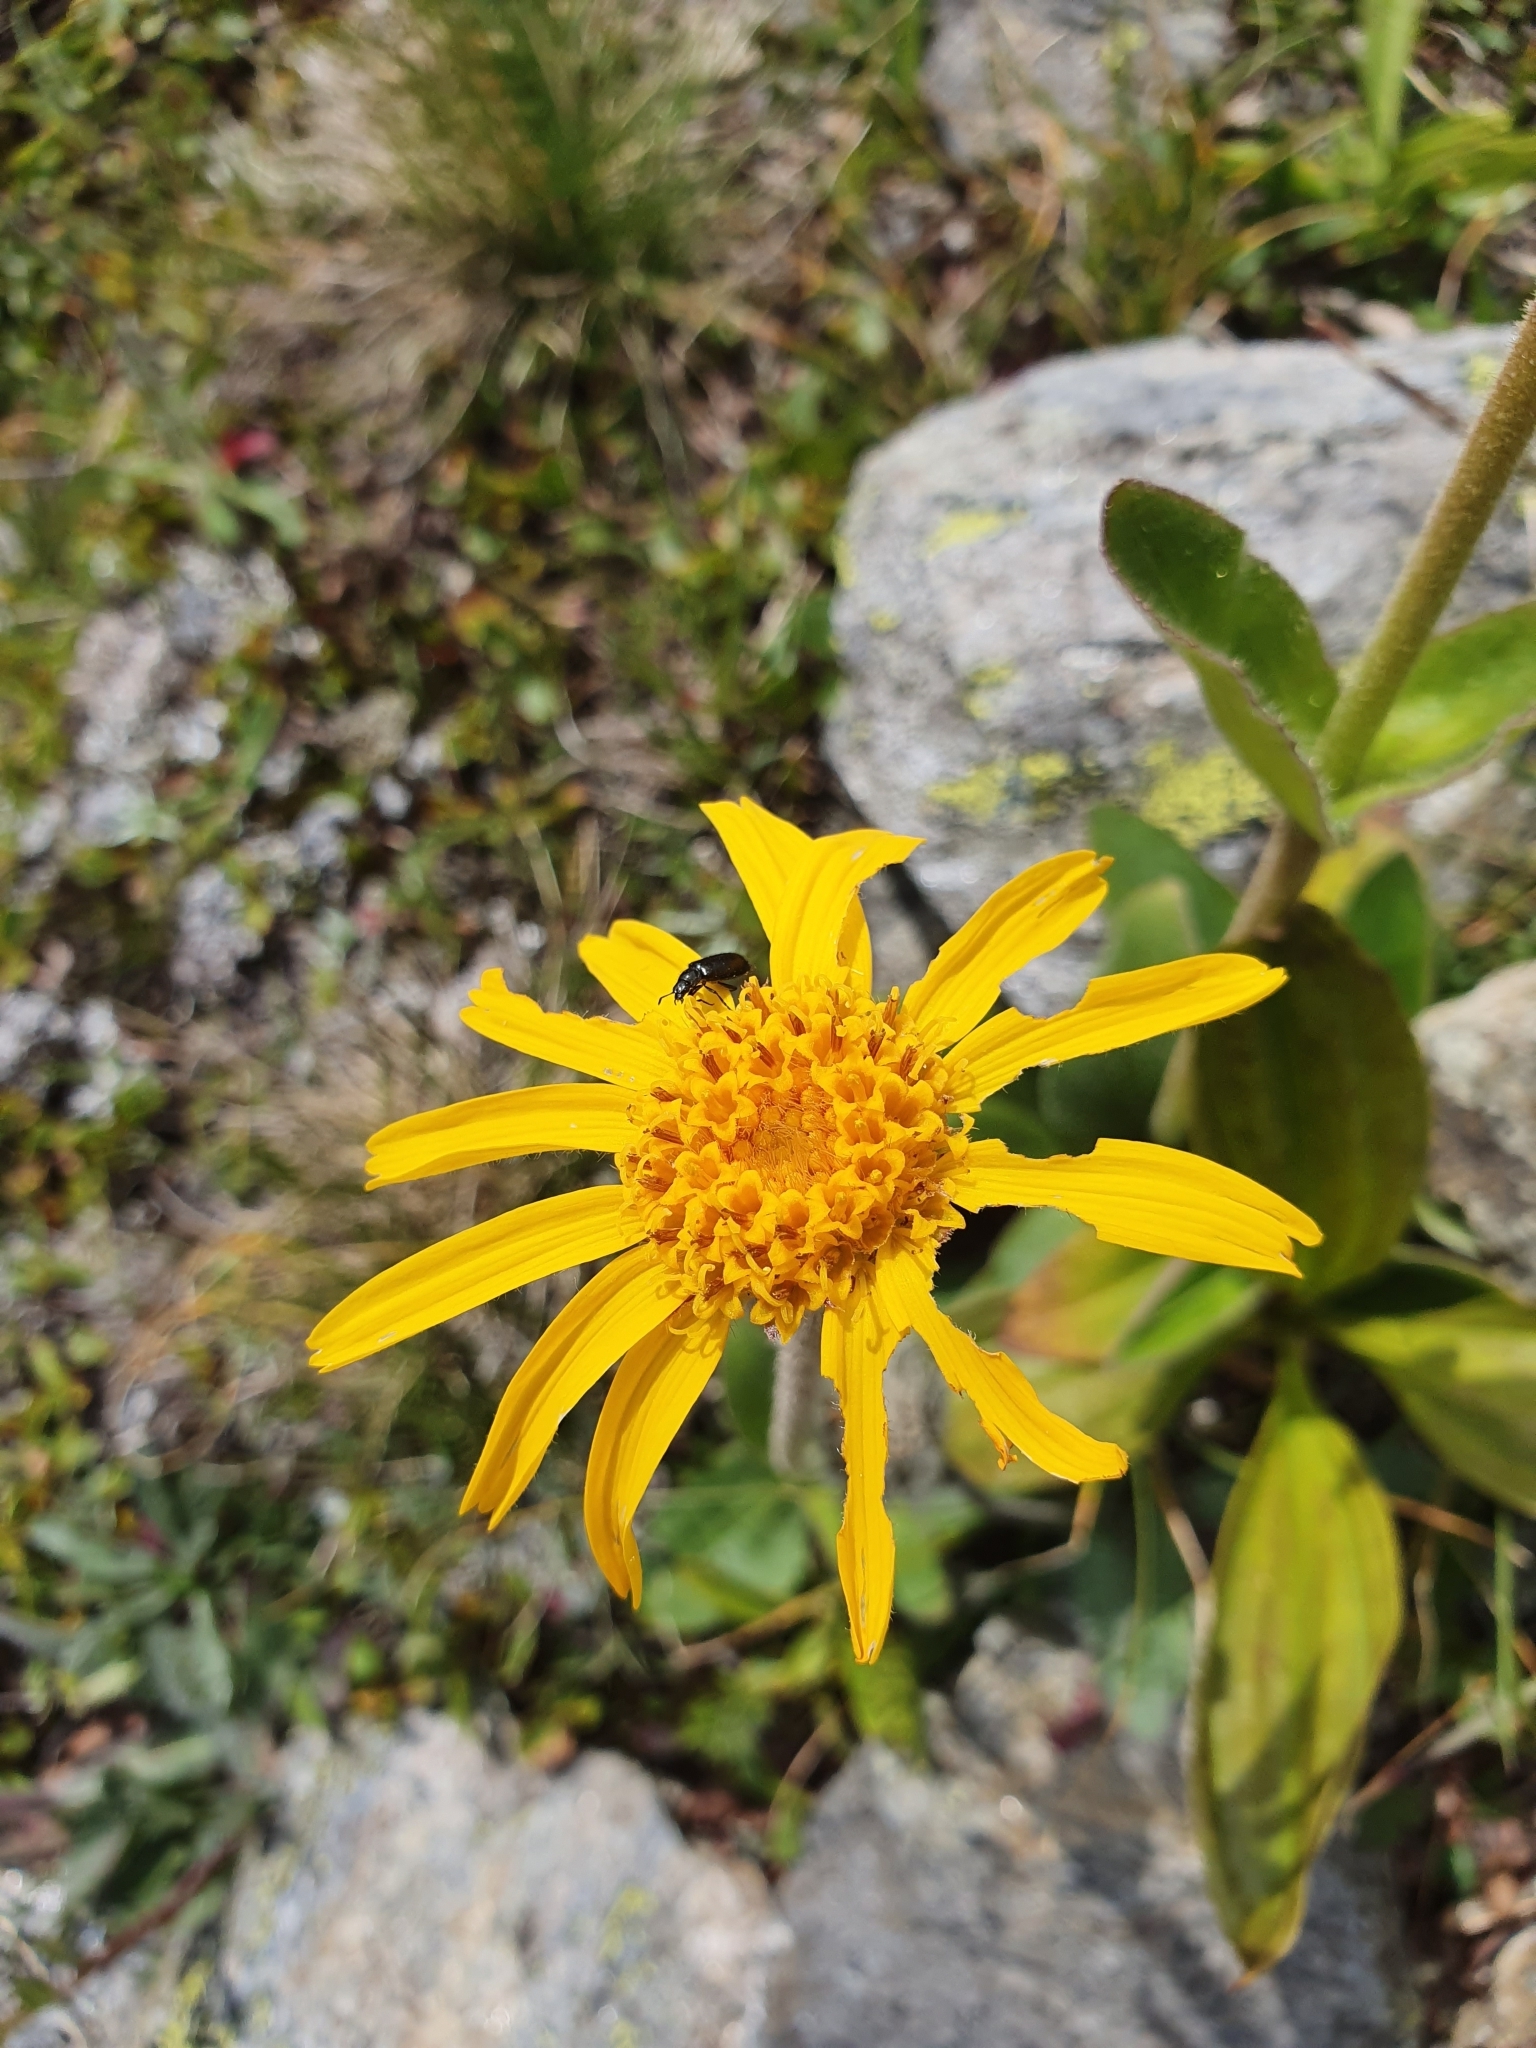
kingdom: Plantae
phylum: Tracheophyta
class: Magnoliopsida
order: Asterales
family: Asteraceae
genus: Arnica
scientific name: Arnica montana
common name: Leopard's bane
